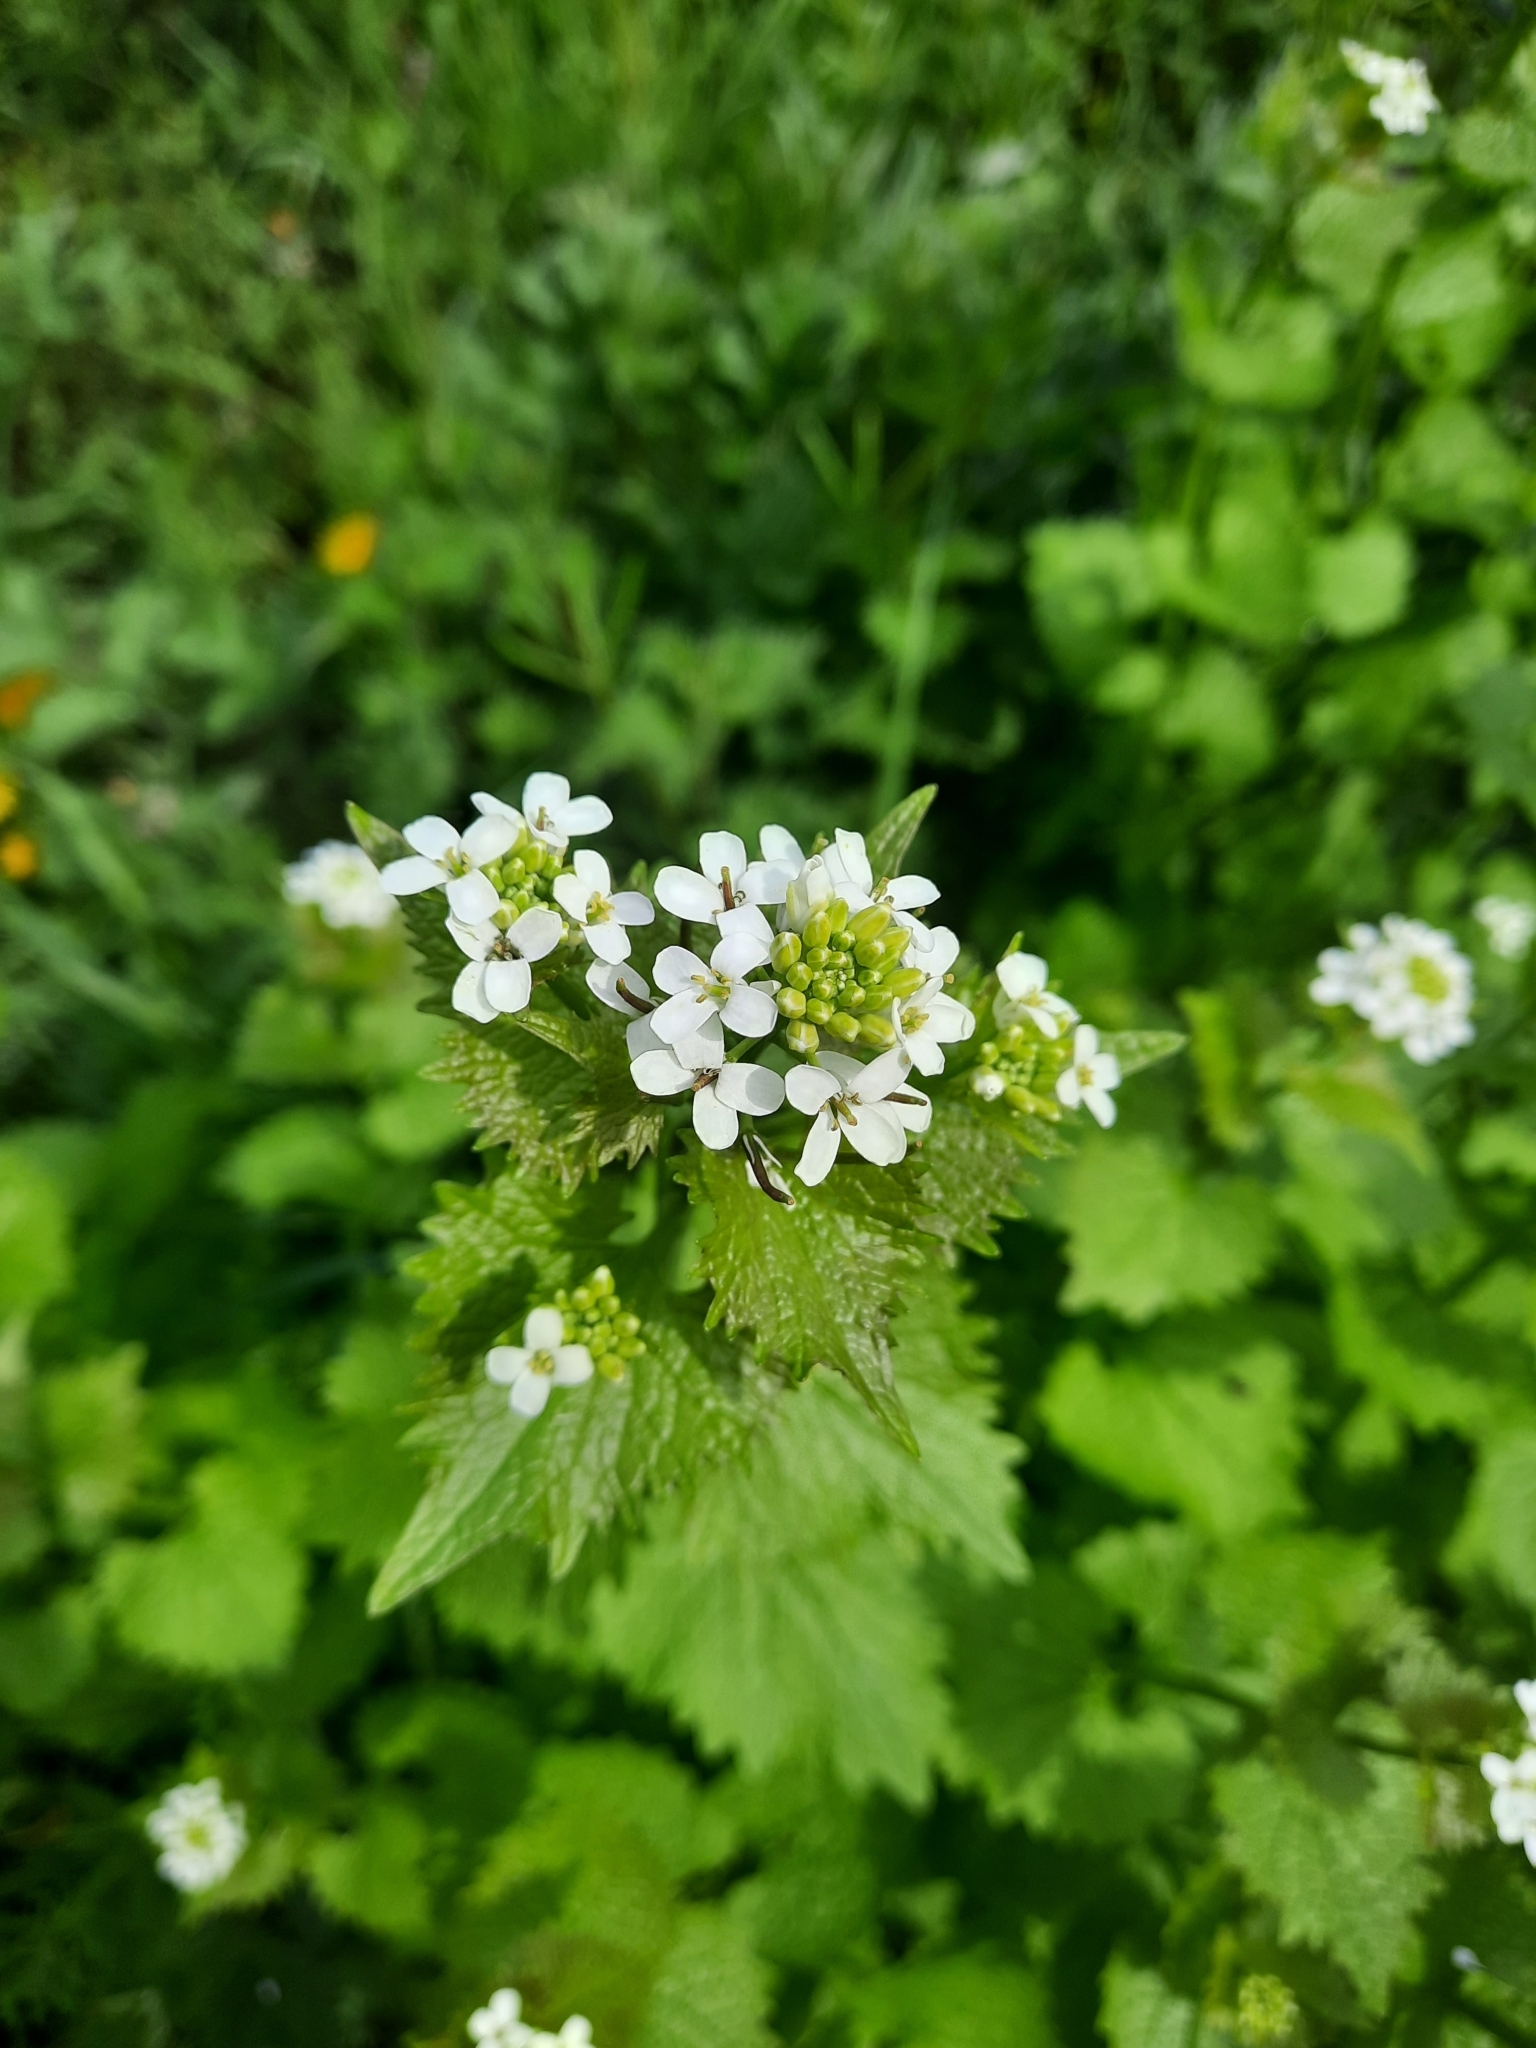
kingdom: Plantae
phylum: Tracheophyta
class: Magnoliopsida
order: Brassicales
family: Brassicaceae
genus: Alliaria
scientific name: Alliaria petiolata
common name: Garlic mustard
